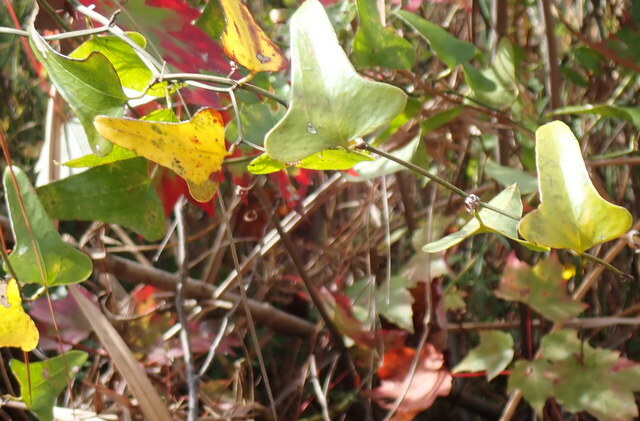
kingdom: Plantae
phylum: Tracheophyta
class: Liliopsida
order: Liliales
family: Smilacaceae
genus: Smilax
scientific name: Smilax bona-nox
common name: Catbrier
